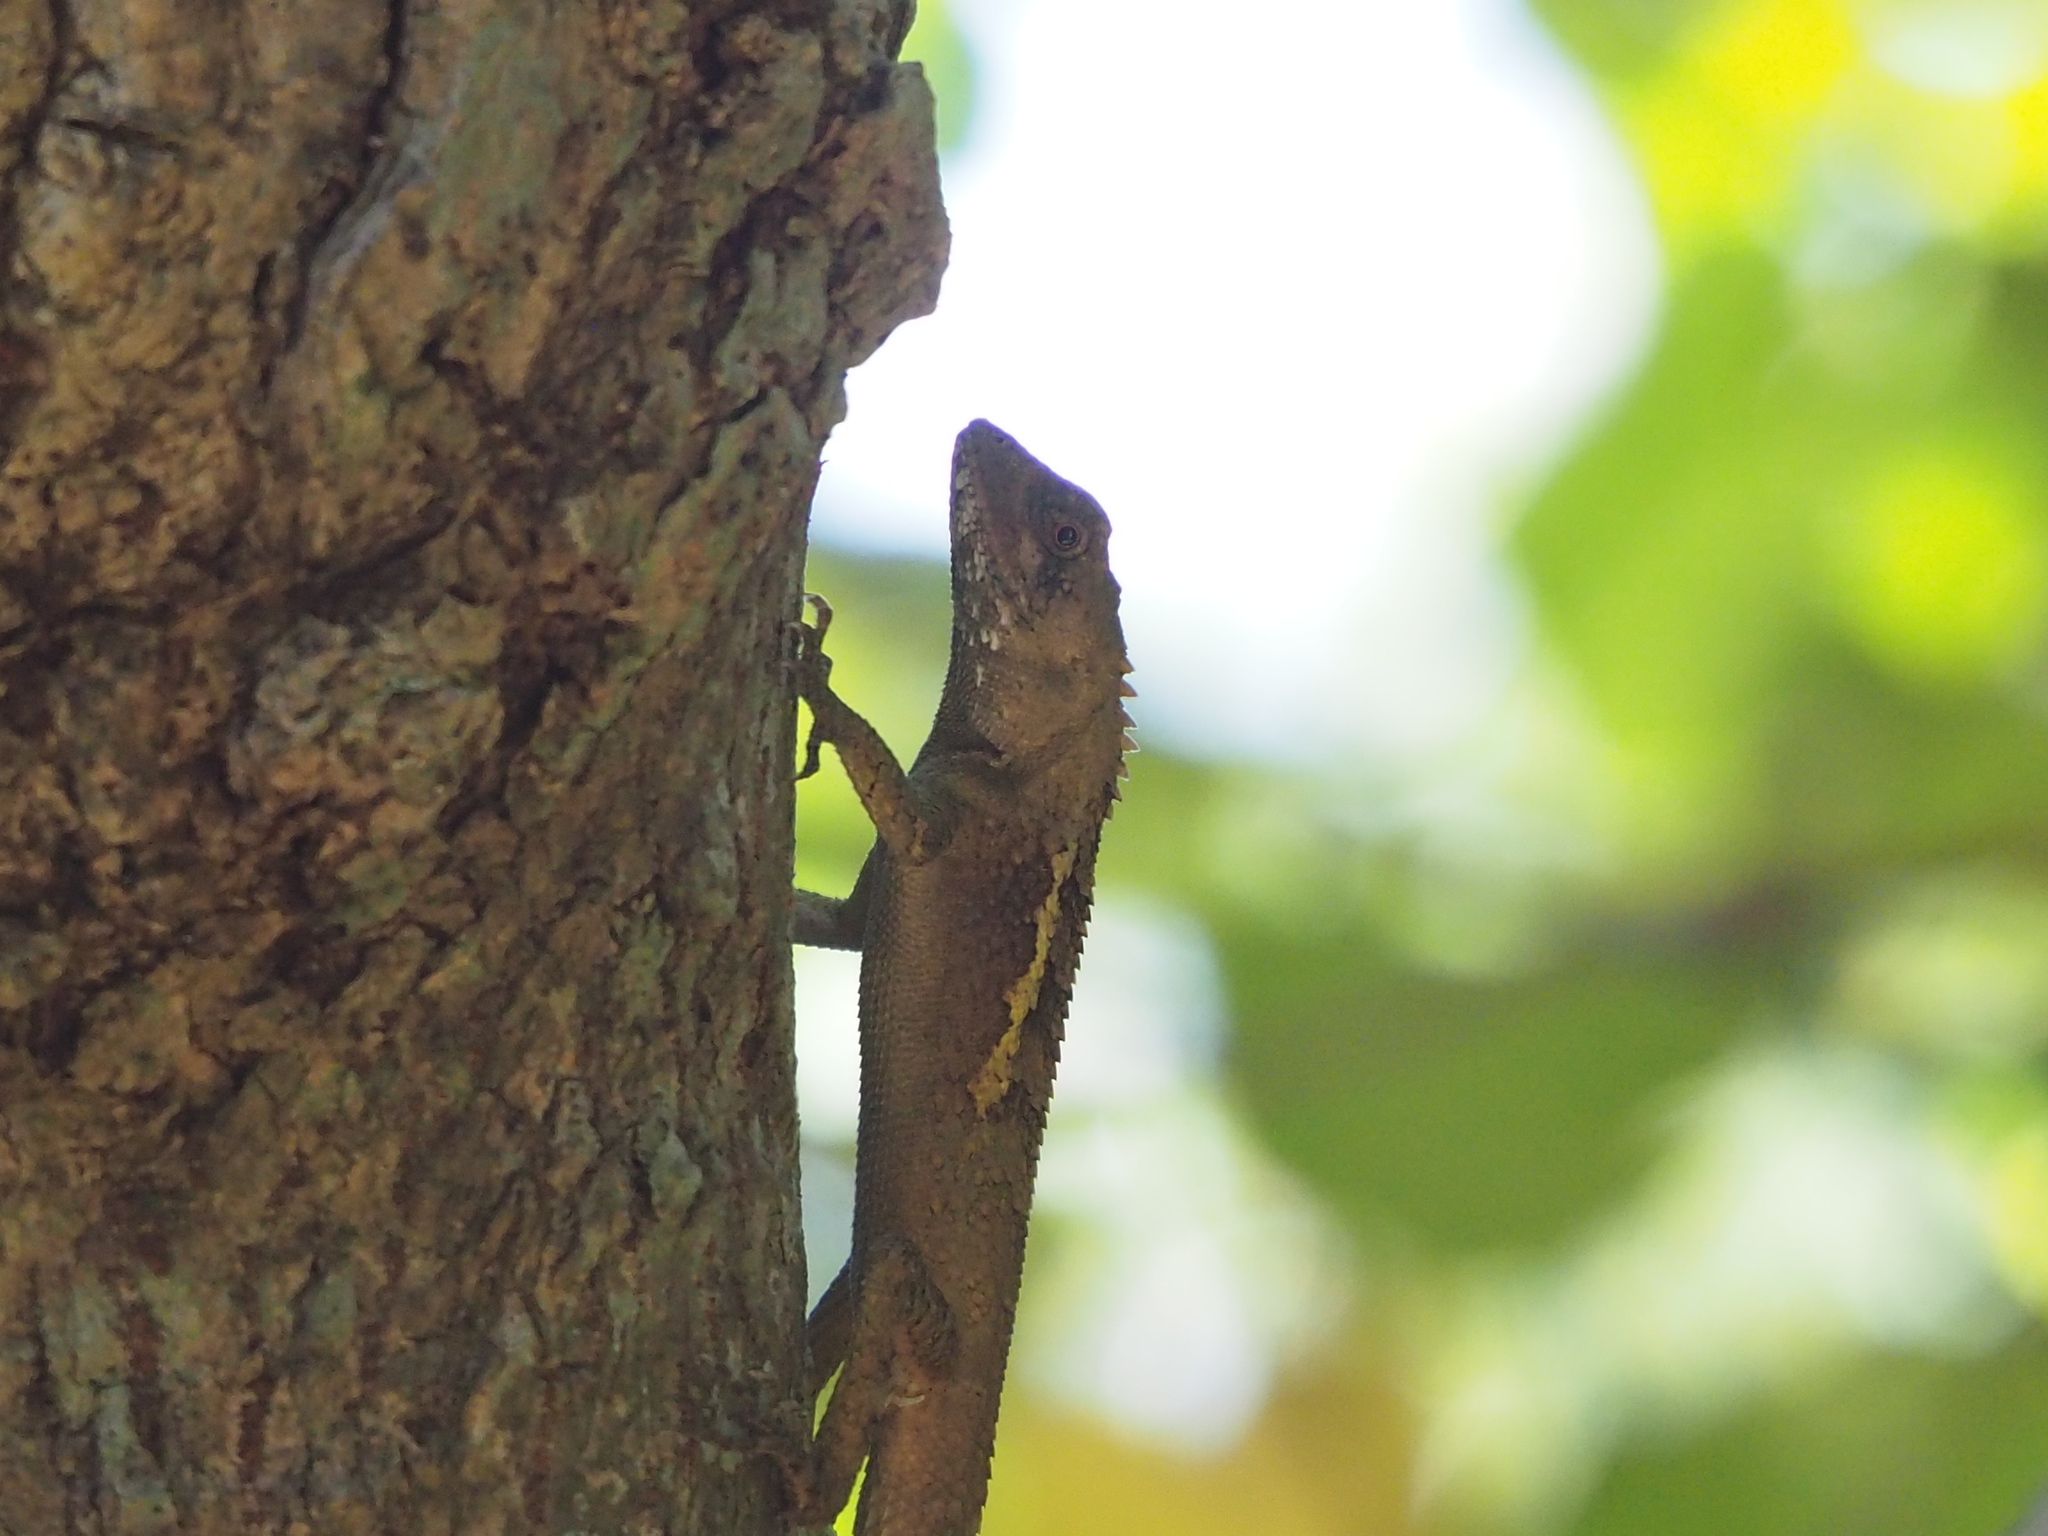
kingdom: Animalia
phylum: Chordata
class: Squamata
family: Agamidae
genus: Diploderma
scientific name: Diploderma swinhonis
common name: Taiwan japalure
